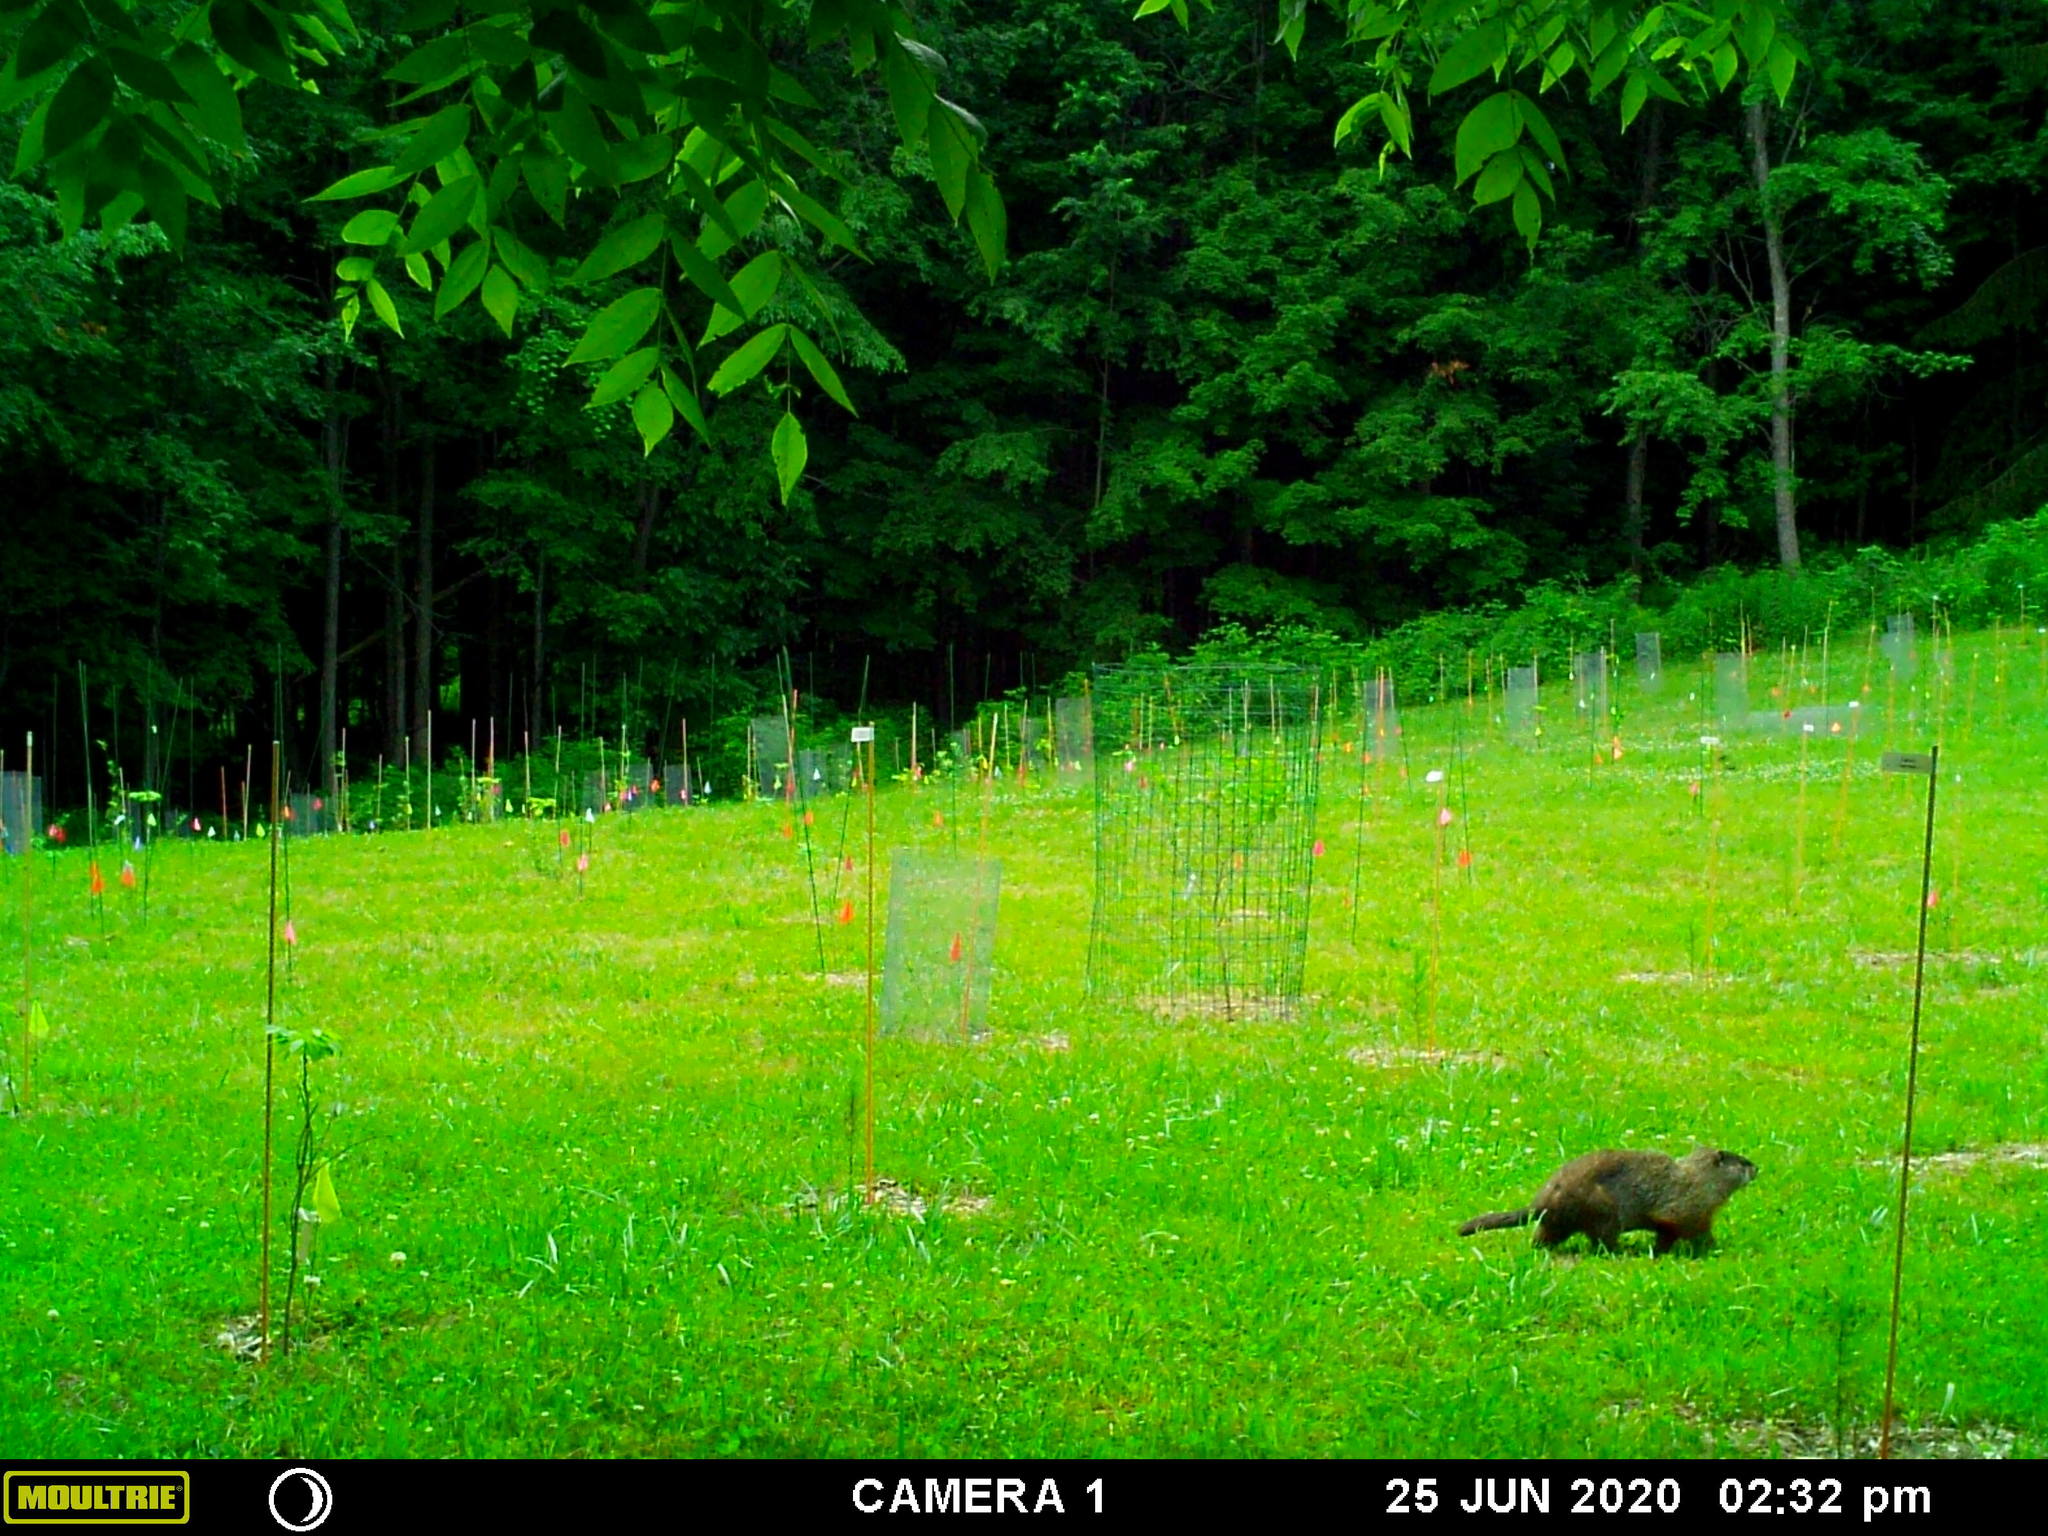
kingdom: Animalia
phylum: Chordata
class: Mammalia
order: Rodentia
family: Sciuridae
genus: Marmota
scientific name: Marmota monax
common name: Groundhog
